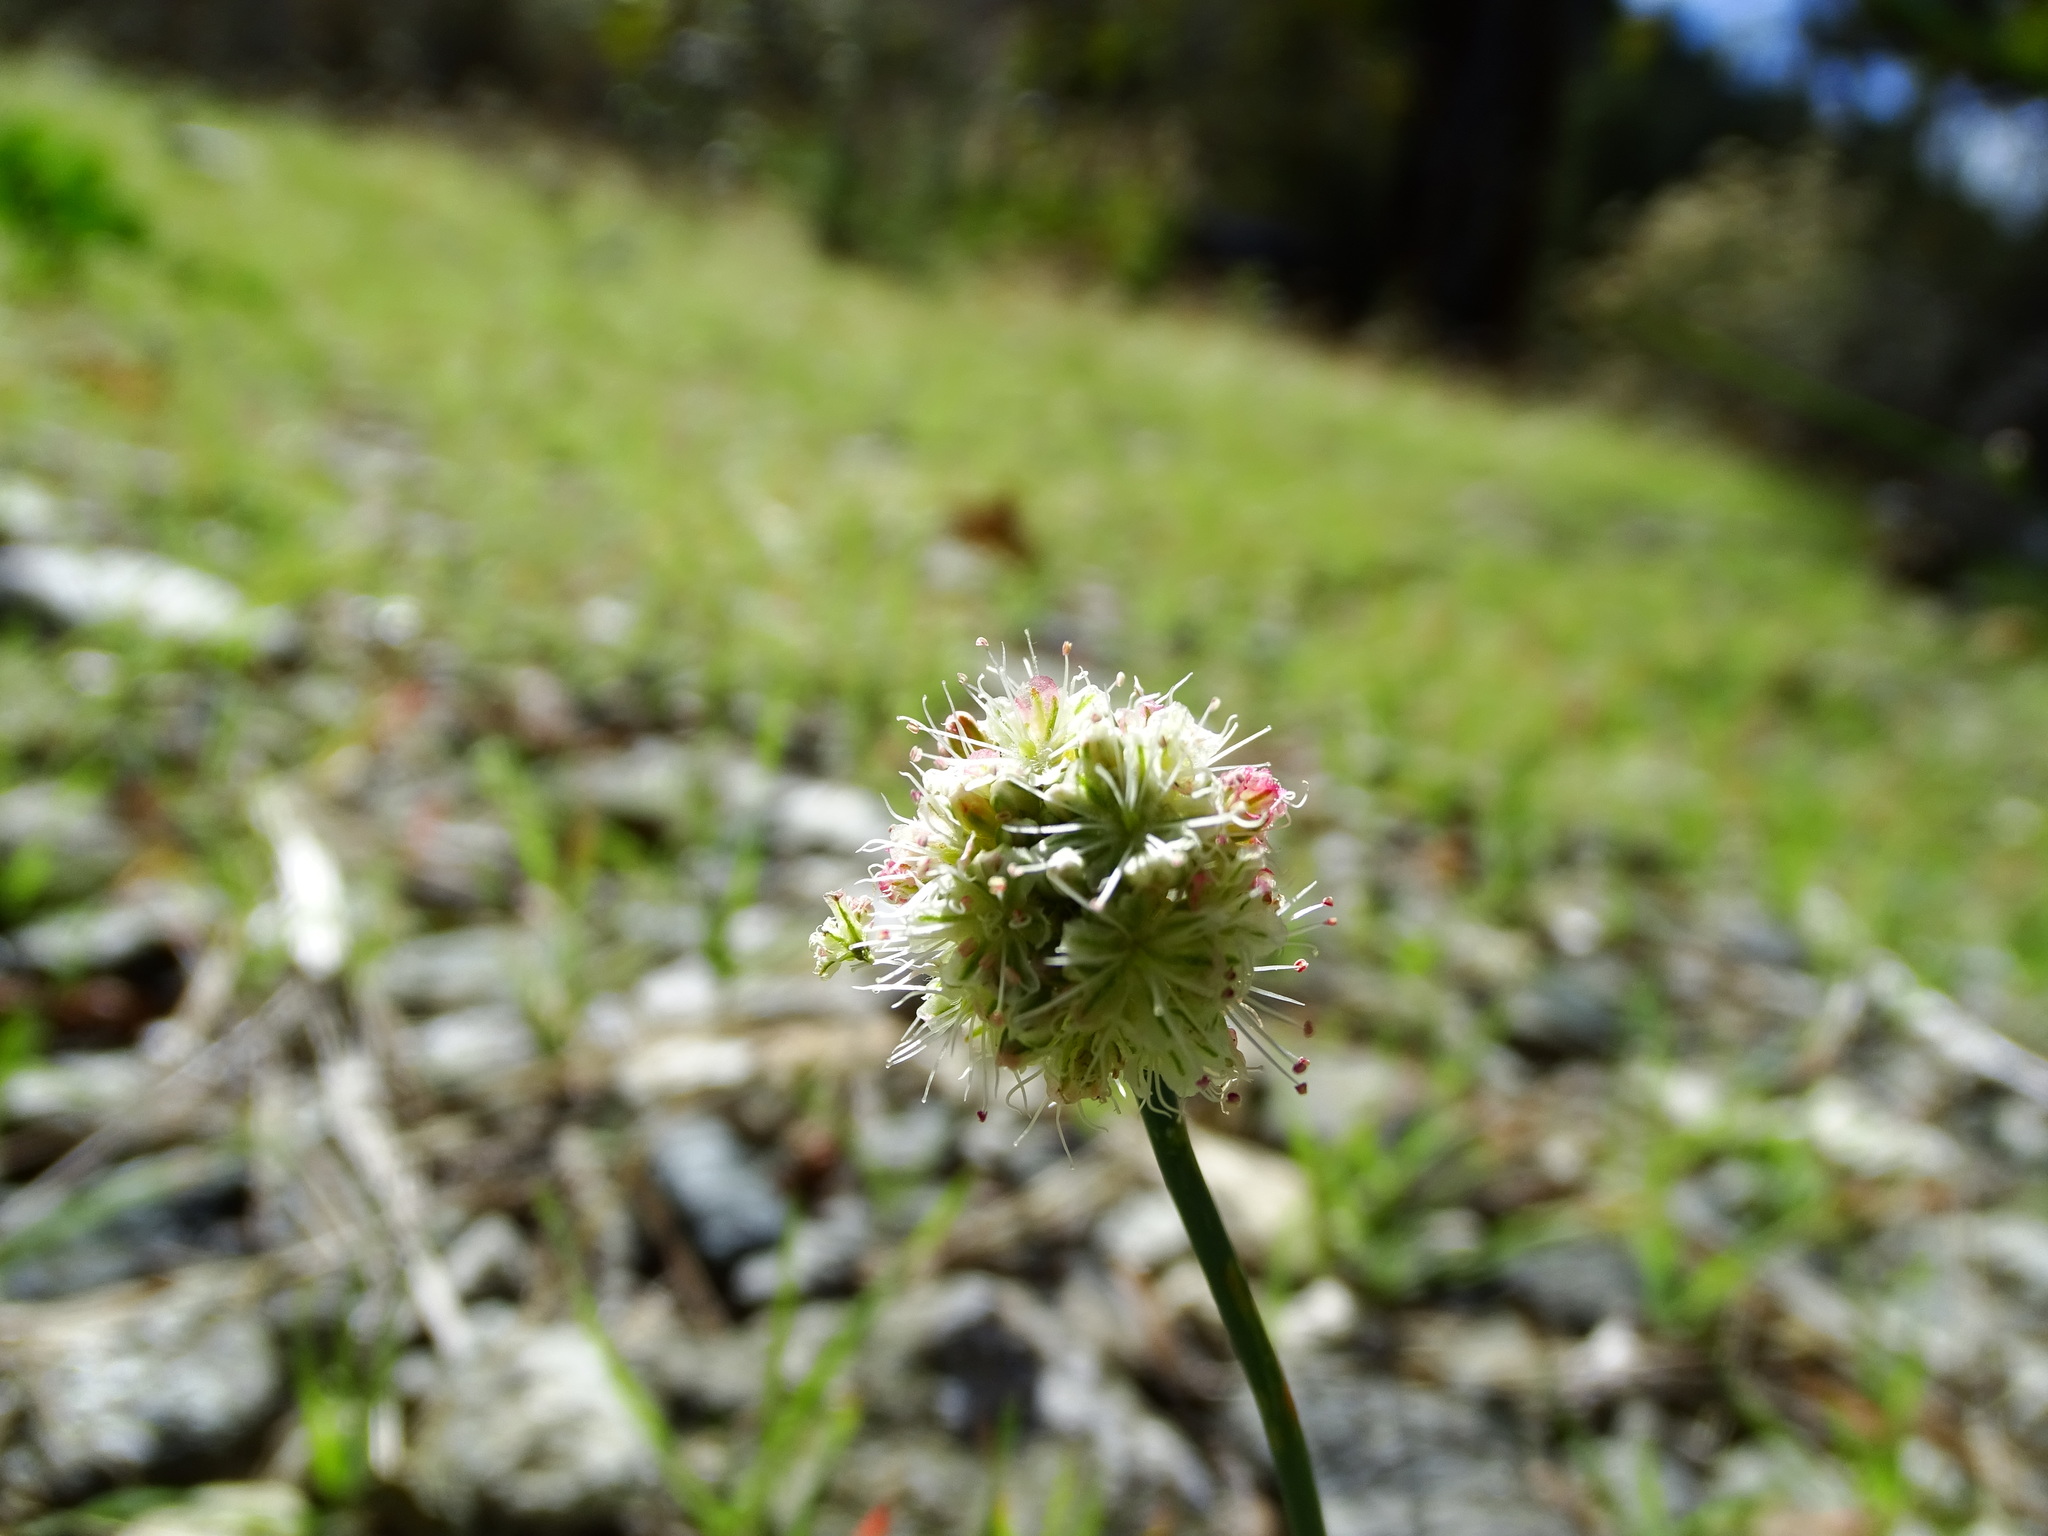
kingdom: Plantae
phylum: Tracheophyta
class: Magnoliopsida
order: Caryophyllales
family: Polygonaceae
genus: Eriogonum
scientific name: Eriogonum nudum
